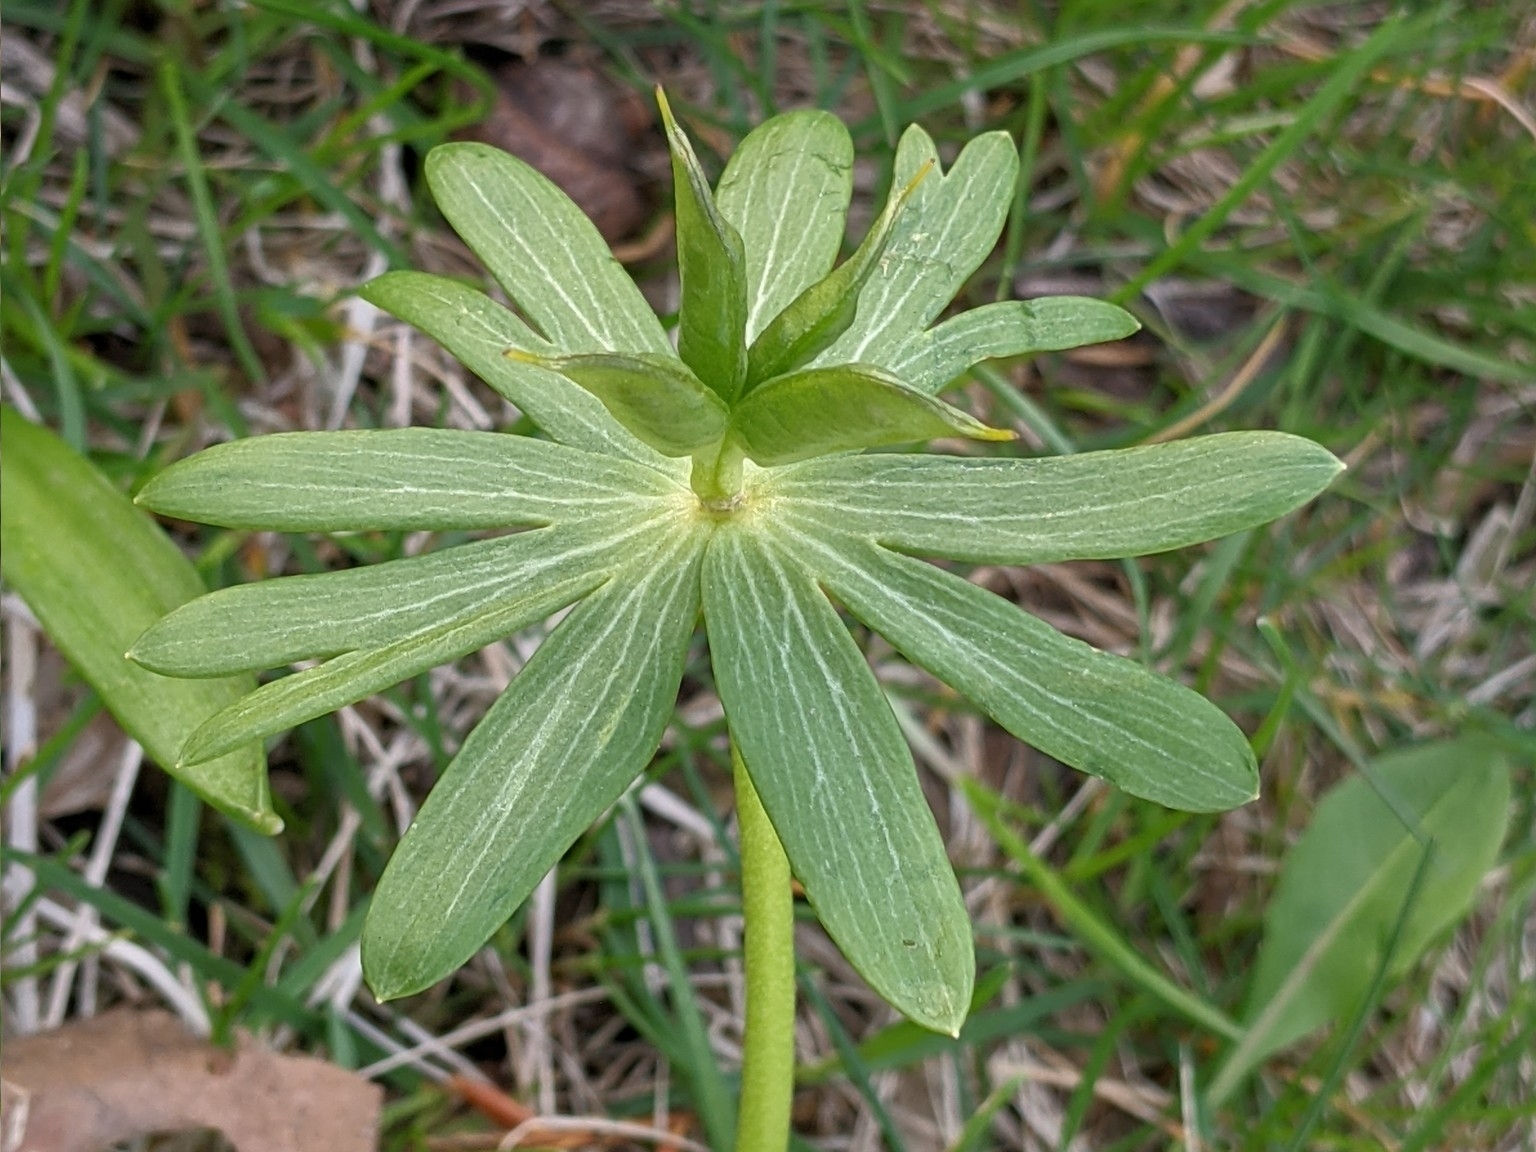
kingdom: Plantae
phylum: Tracheophyta
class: Magnoliopsida
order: Ranunculales
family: Ranunculaceae
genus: Eranthis
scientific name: Eranthis hyemalis
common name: Winter aconite
